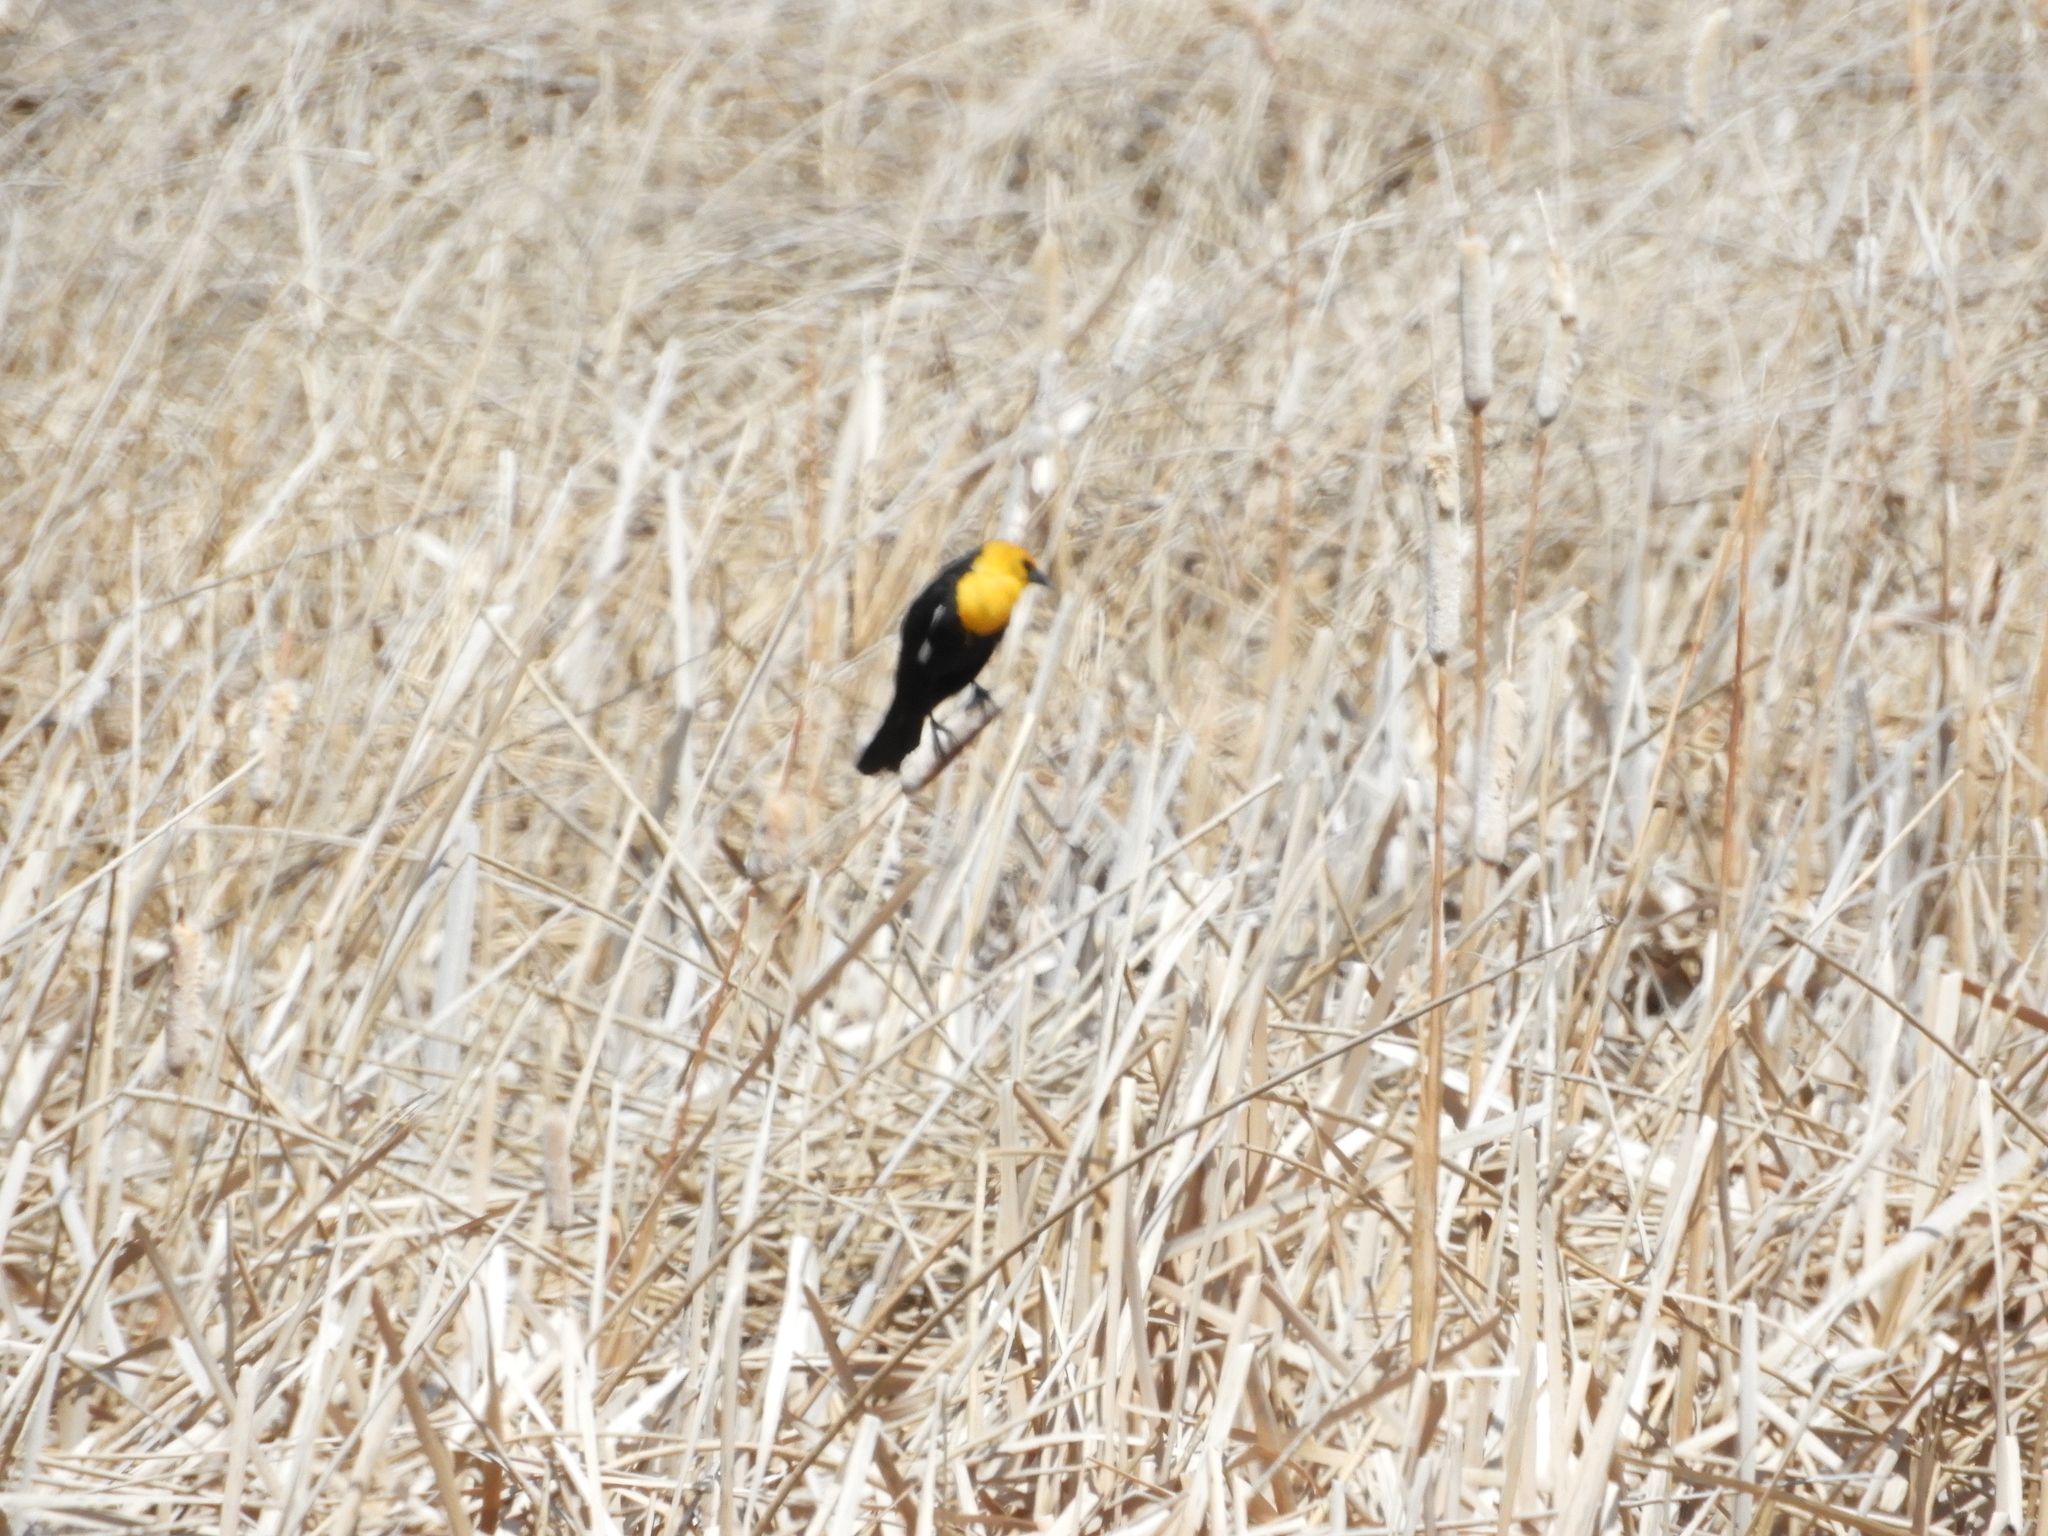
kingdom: Animalia
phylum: Chordata
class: Aves
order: Passeriformes
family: Icteridae
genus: Xanthocephalus
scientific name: Xanthocephalus xanthocephalus
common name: Yellow-headed blackbird
